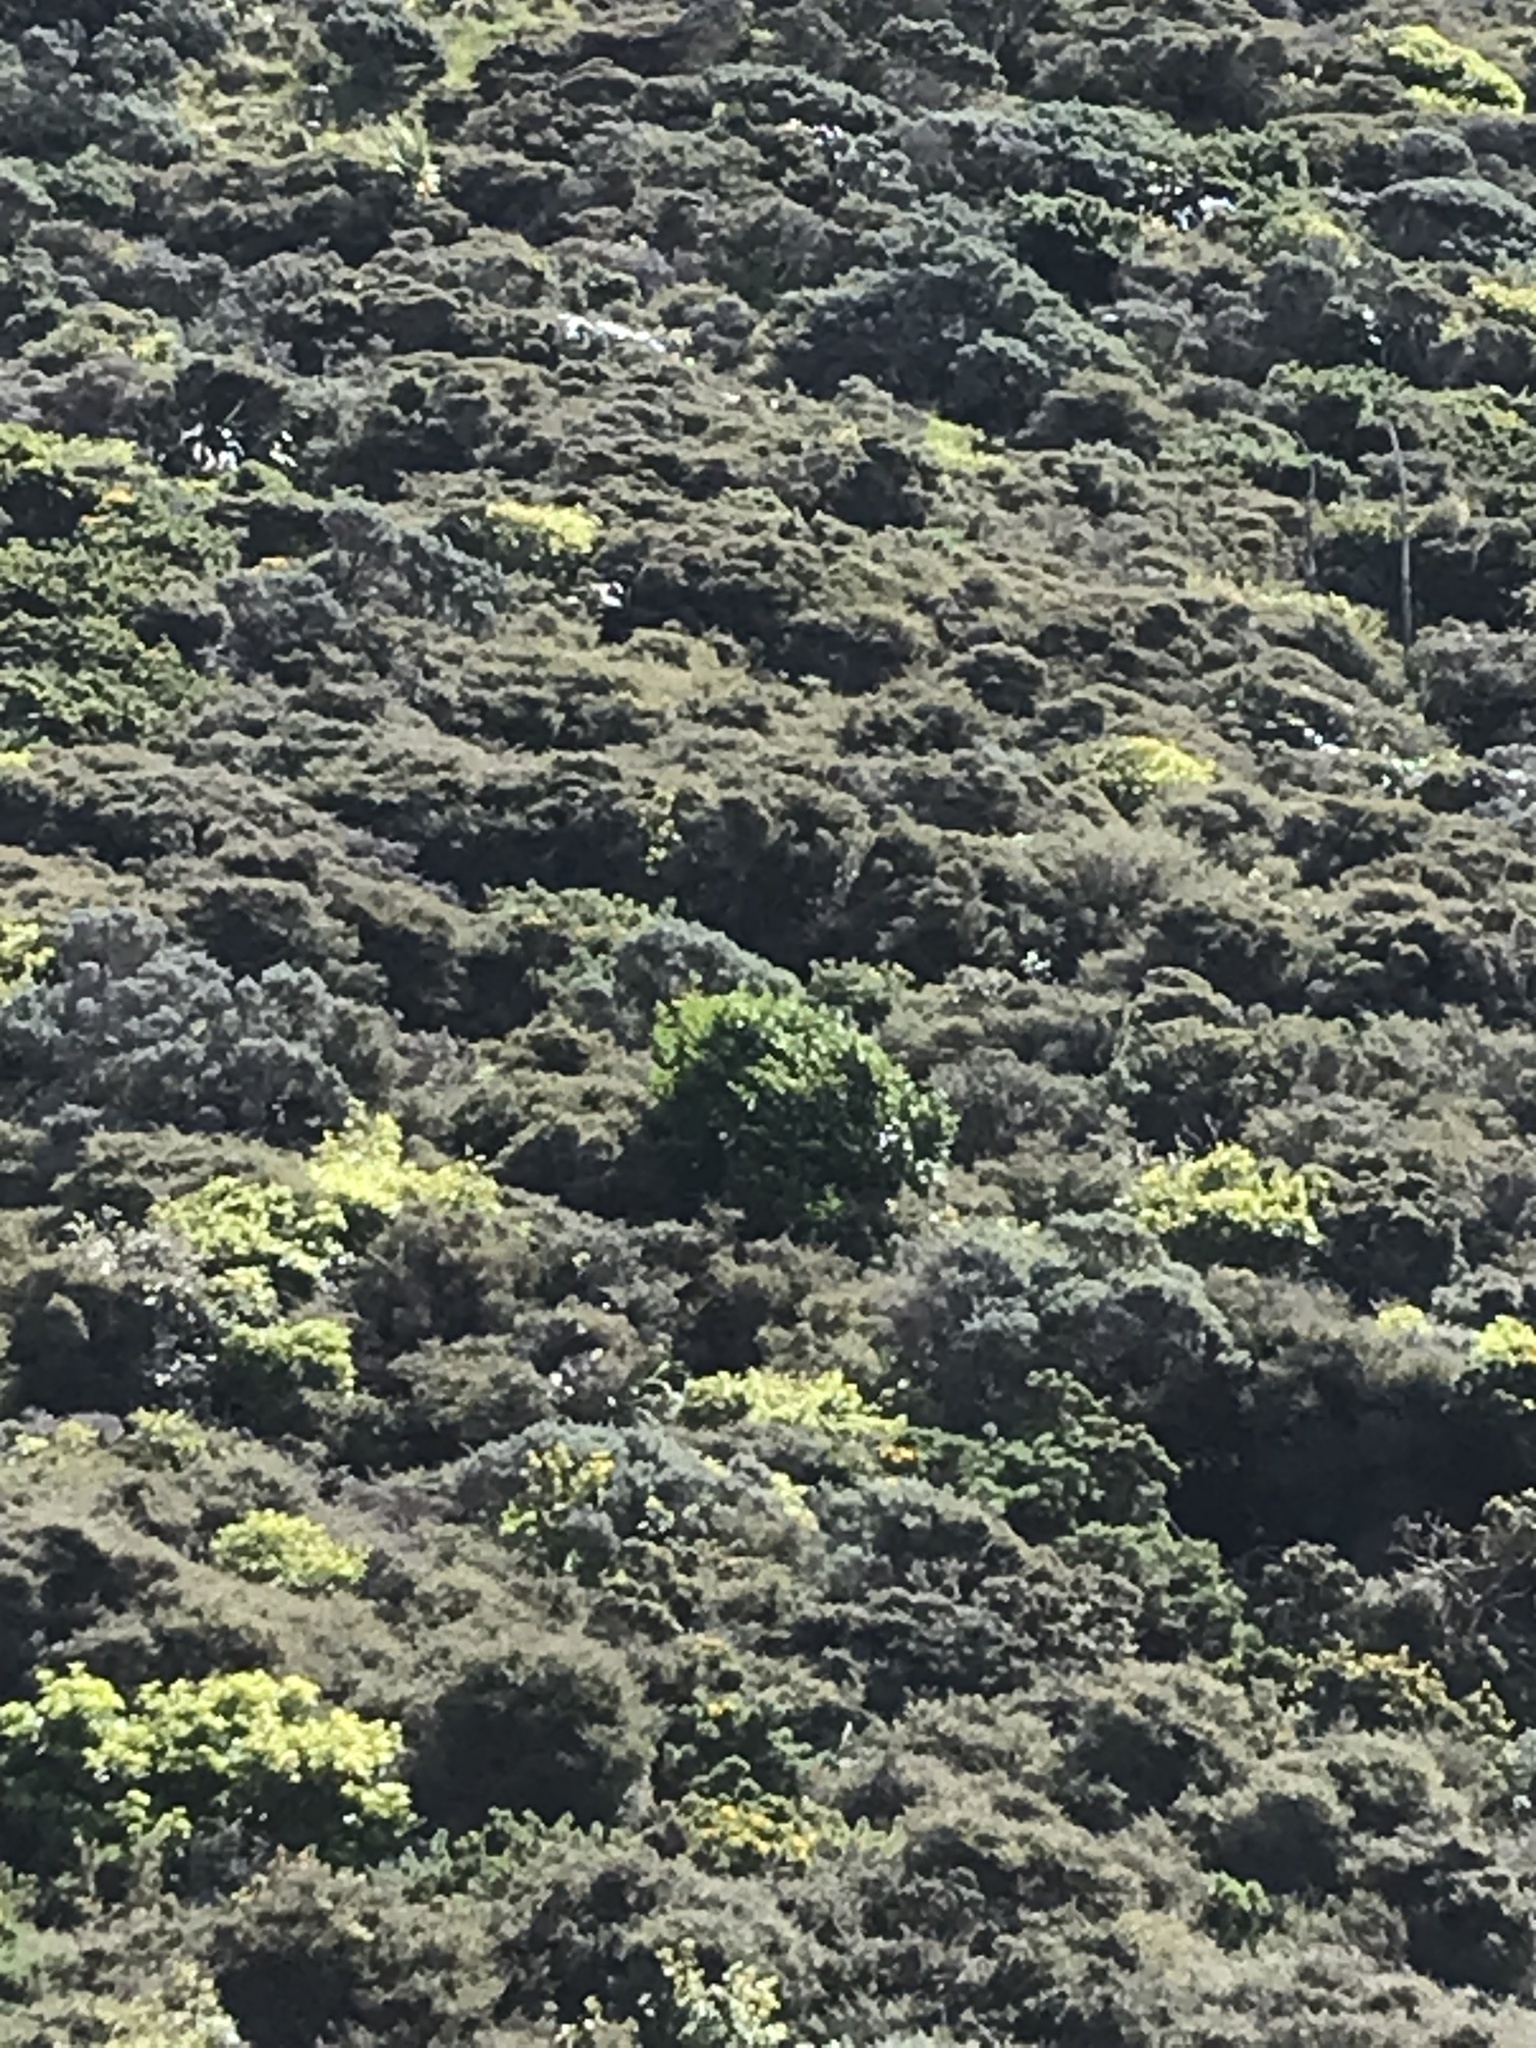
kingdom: Plantae
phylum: Tracheophyta
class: Magnoliopsida
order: Apiales
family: Griseliniaceae
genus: Griselinia
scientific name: Griselinia littoralis
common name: New zealand broadleaf
